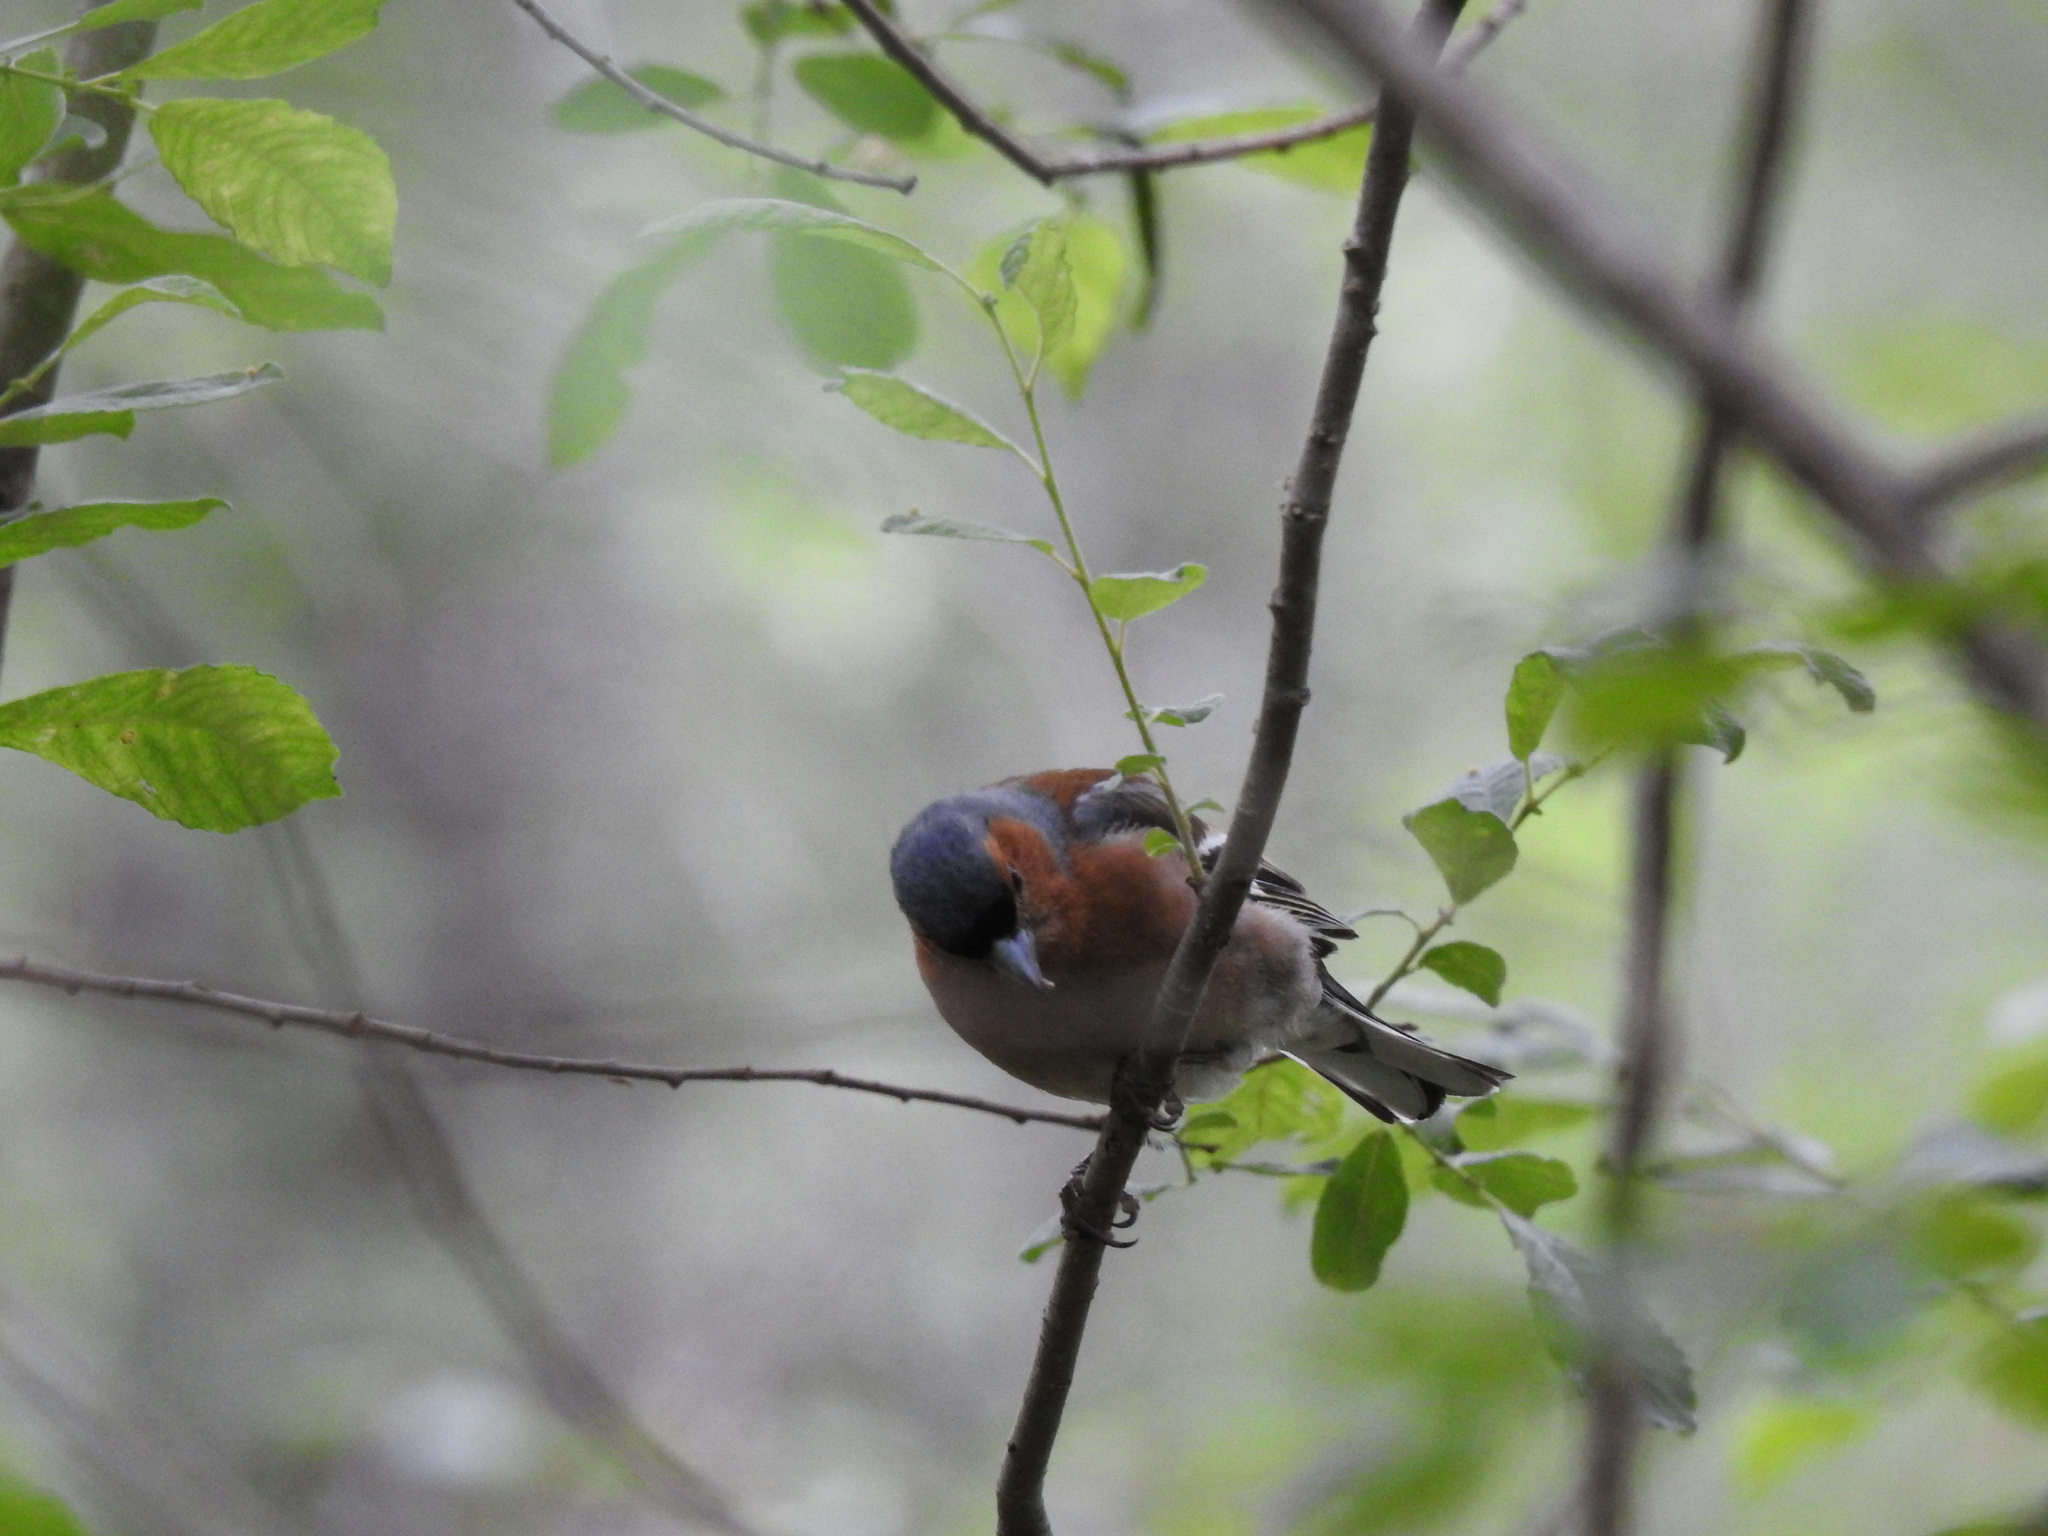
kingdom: Animalia
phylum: Chordata
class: Aves
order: Passeriformes
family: Fringillidae
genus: Fringilla
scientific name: Fringilla coelebs
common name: Common chaffinch
